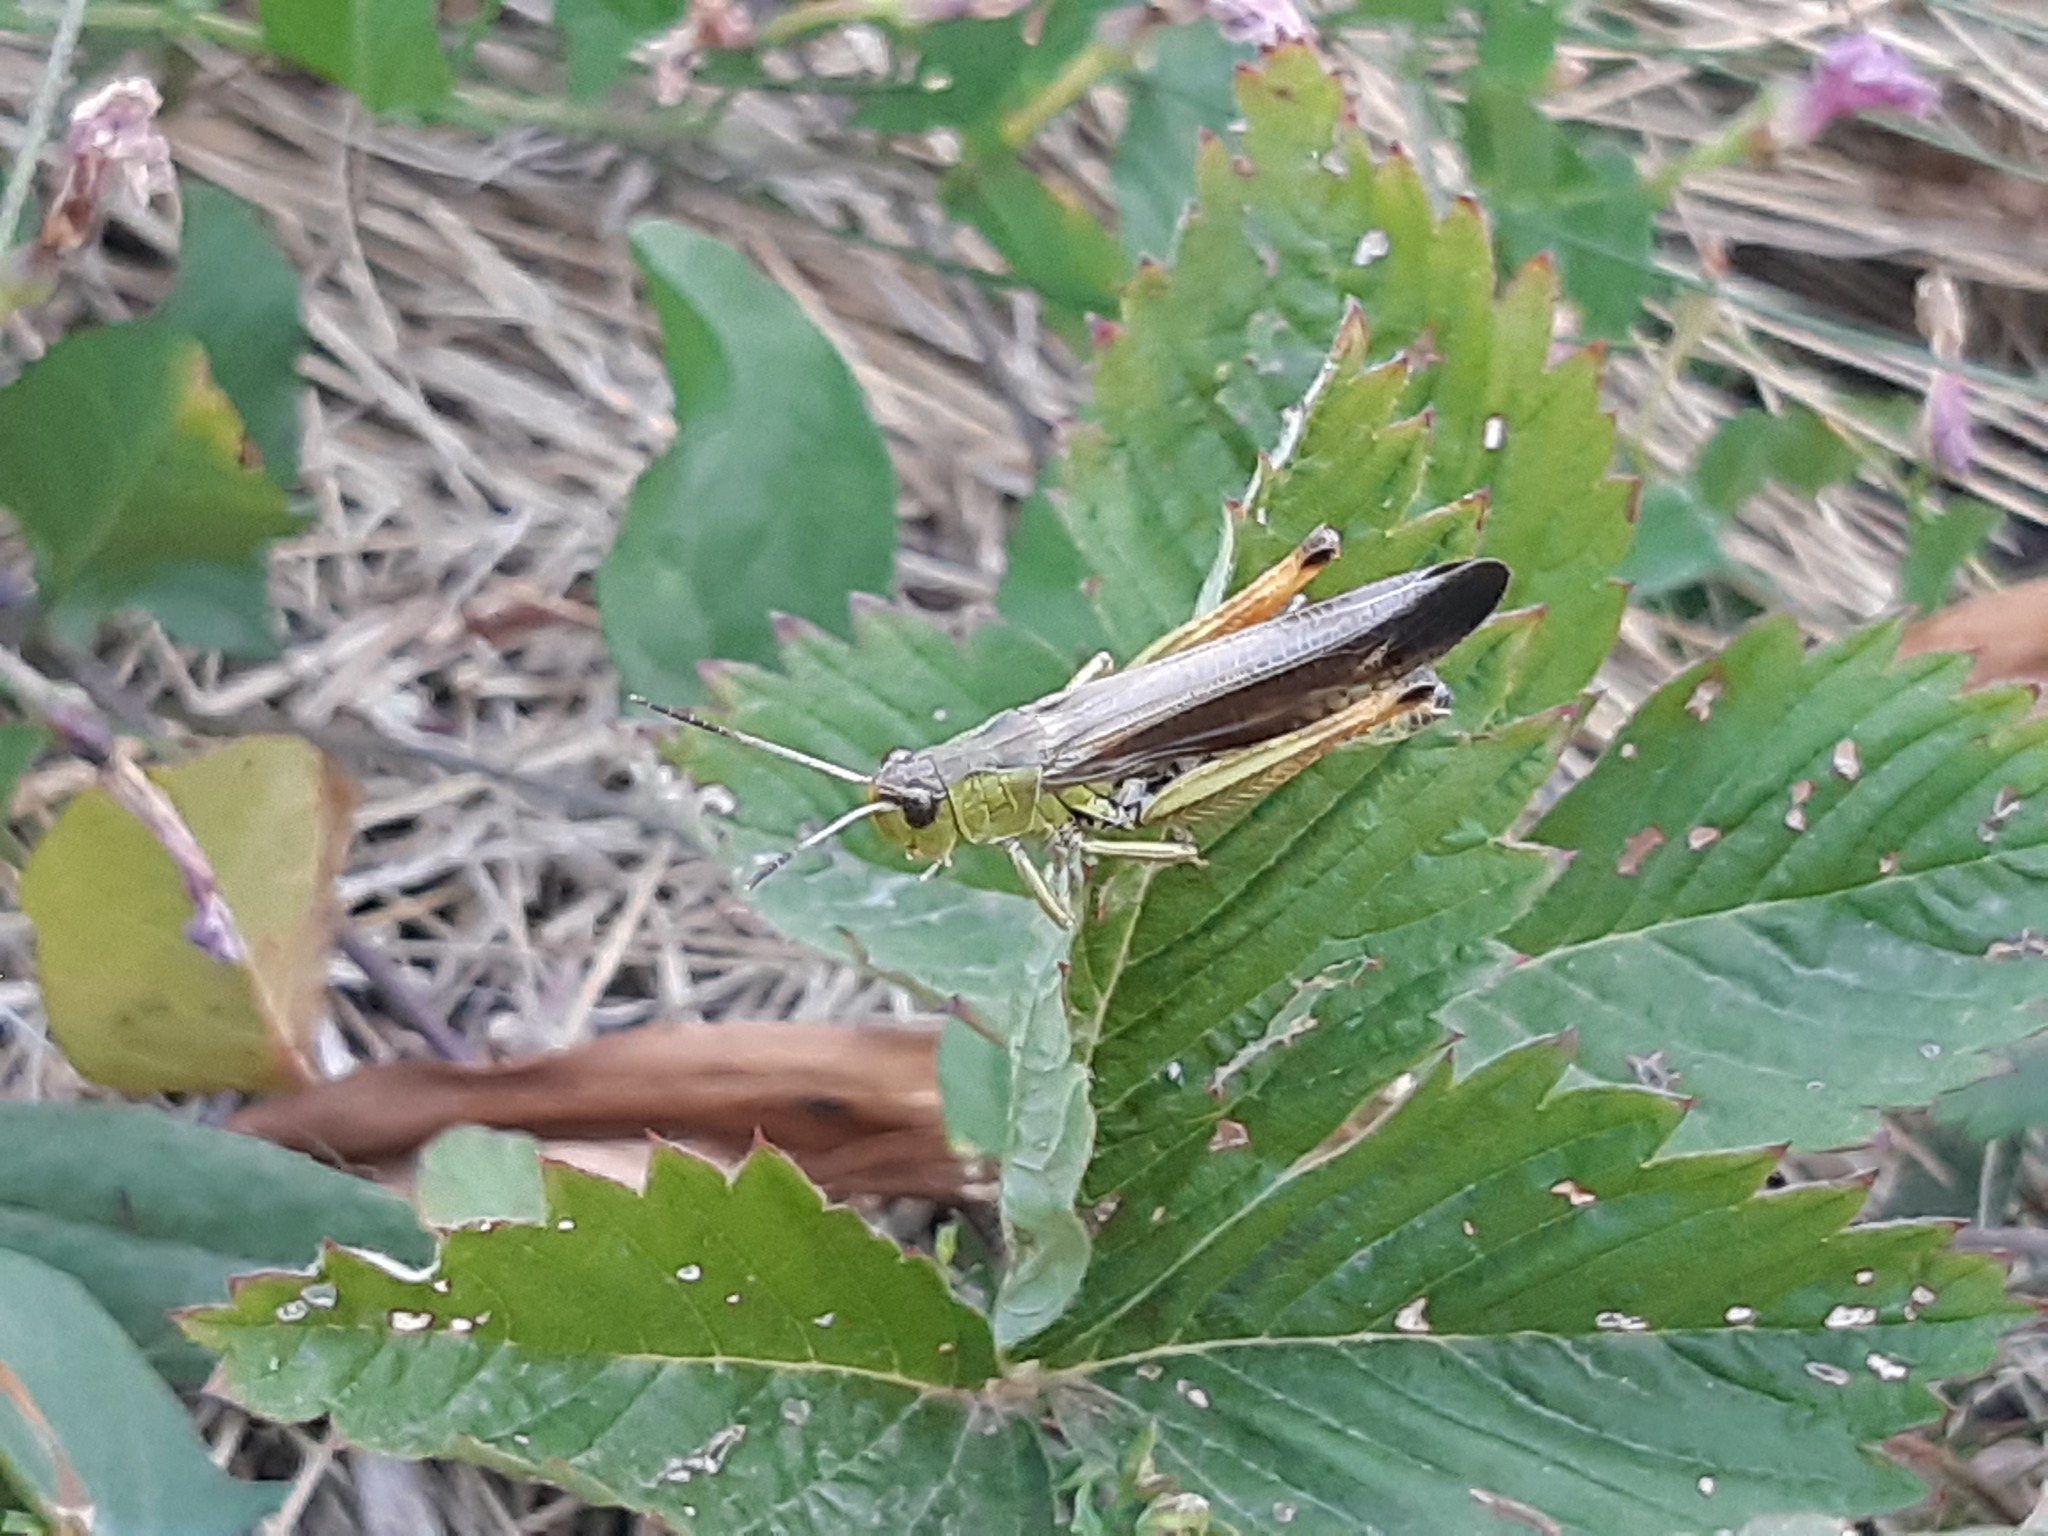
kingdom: Animalia
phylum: Arthropoda
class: Insecta
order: Orthoptera
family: Acrididae
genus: Stauroderus
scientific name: Stauroderus scalaris
